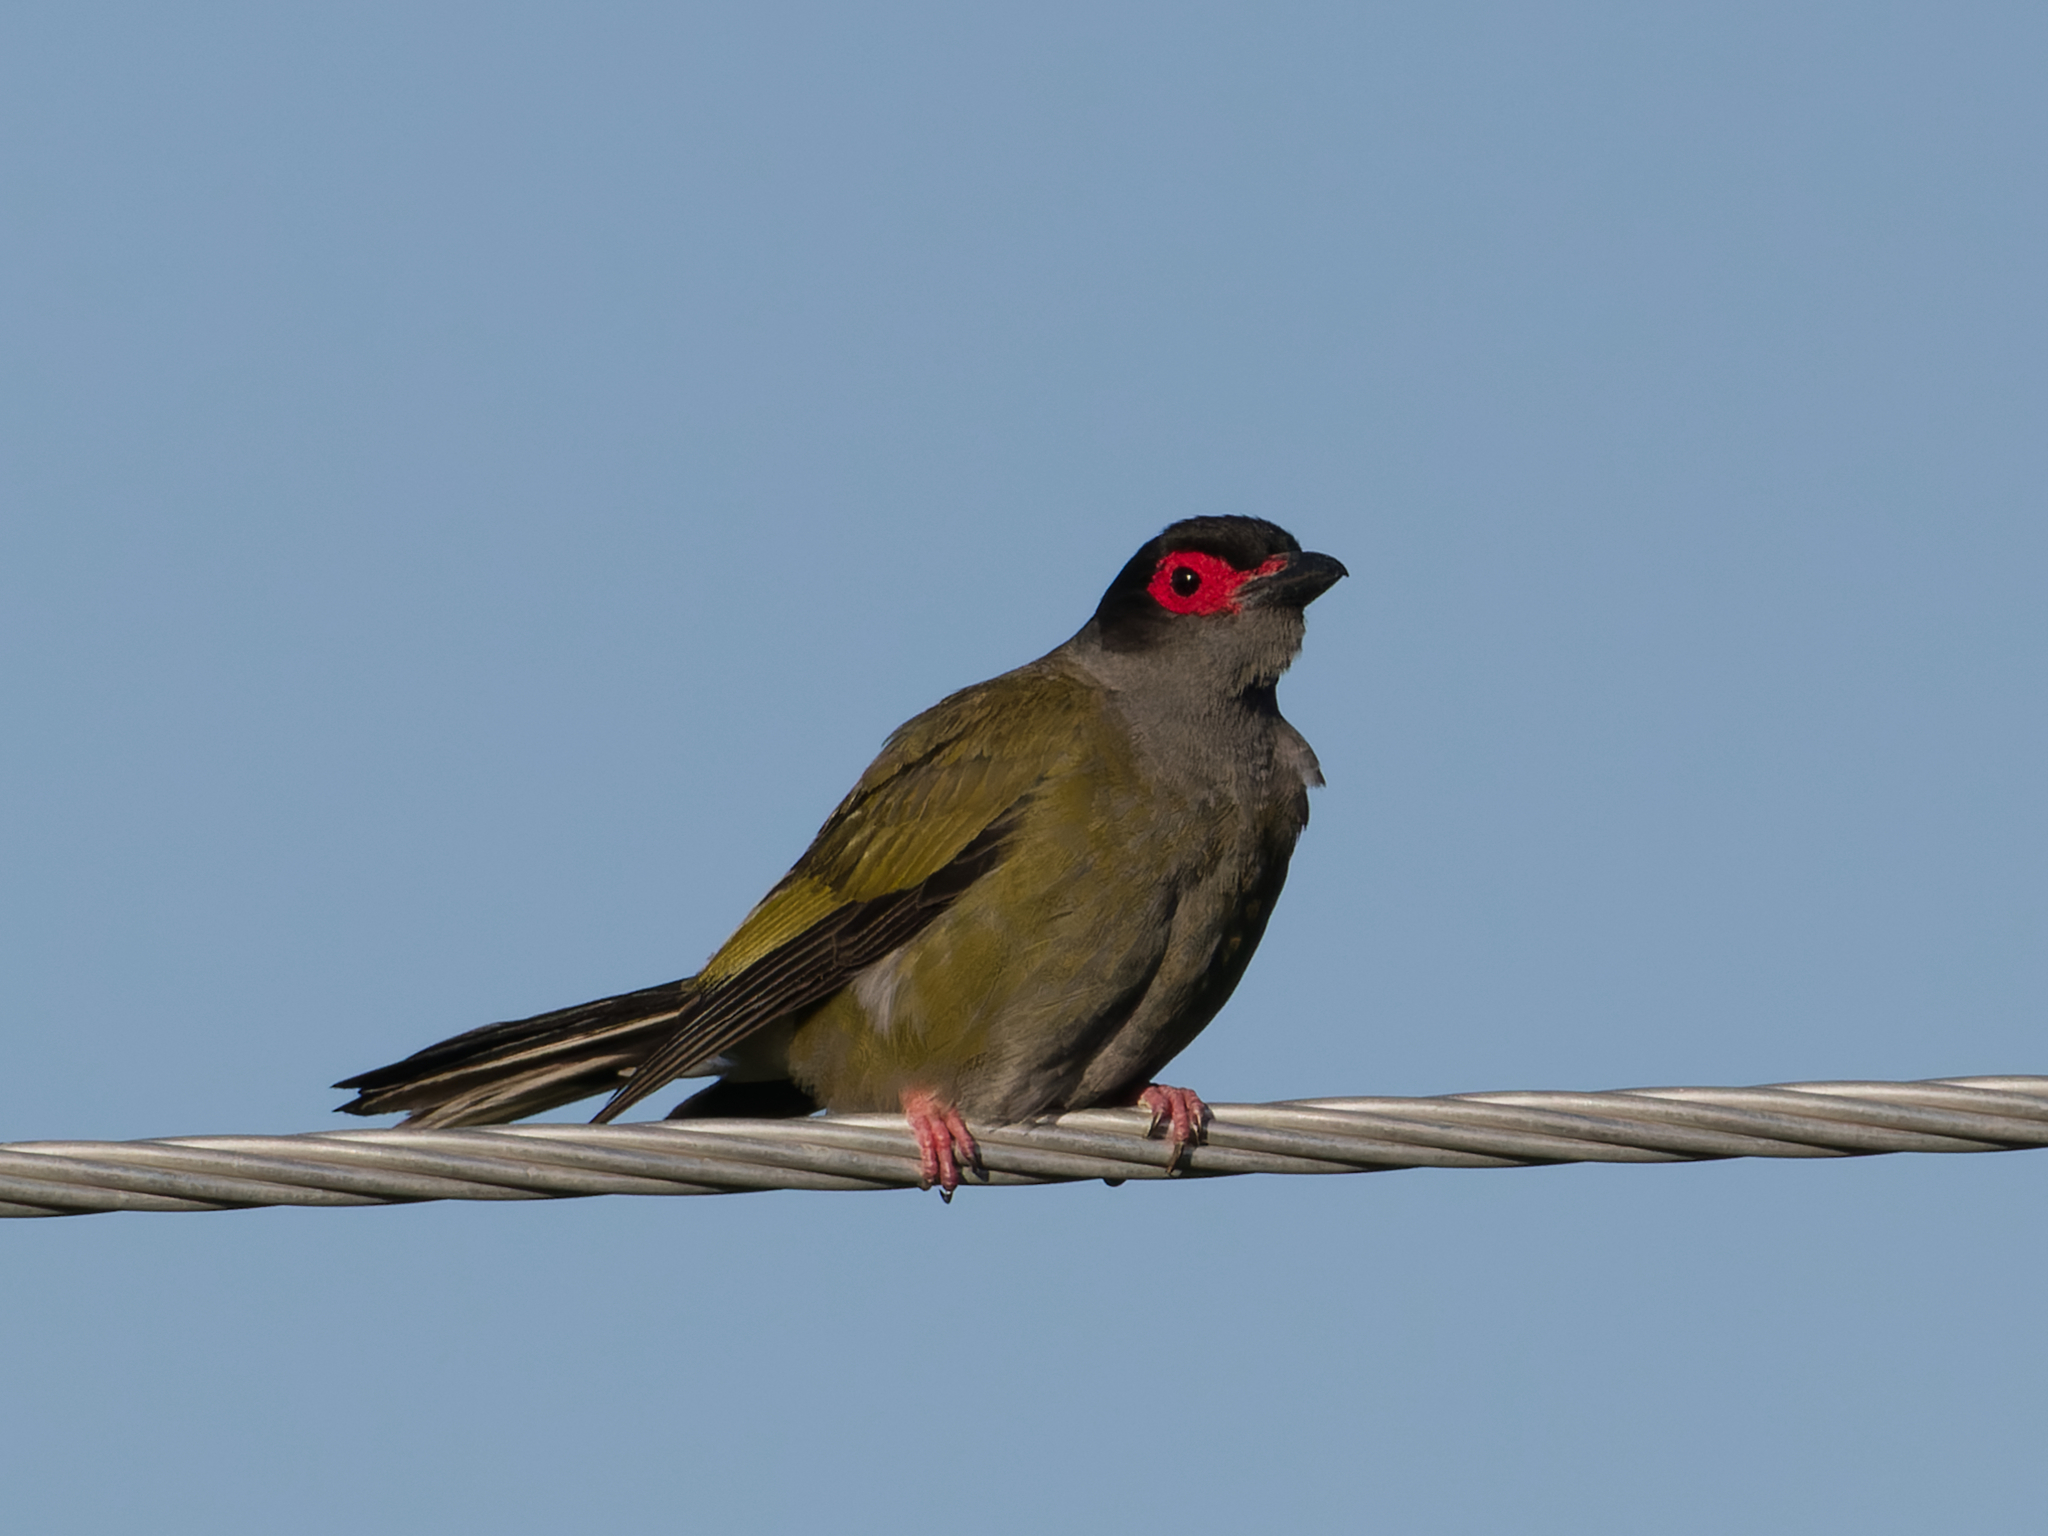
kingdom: Animalia
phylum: Chordata
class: Aves
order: Passeriformes
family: Oriolidae
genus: Sphecotheres
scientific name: Sphecotheres vieilloti
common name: Australasian figbird
